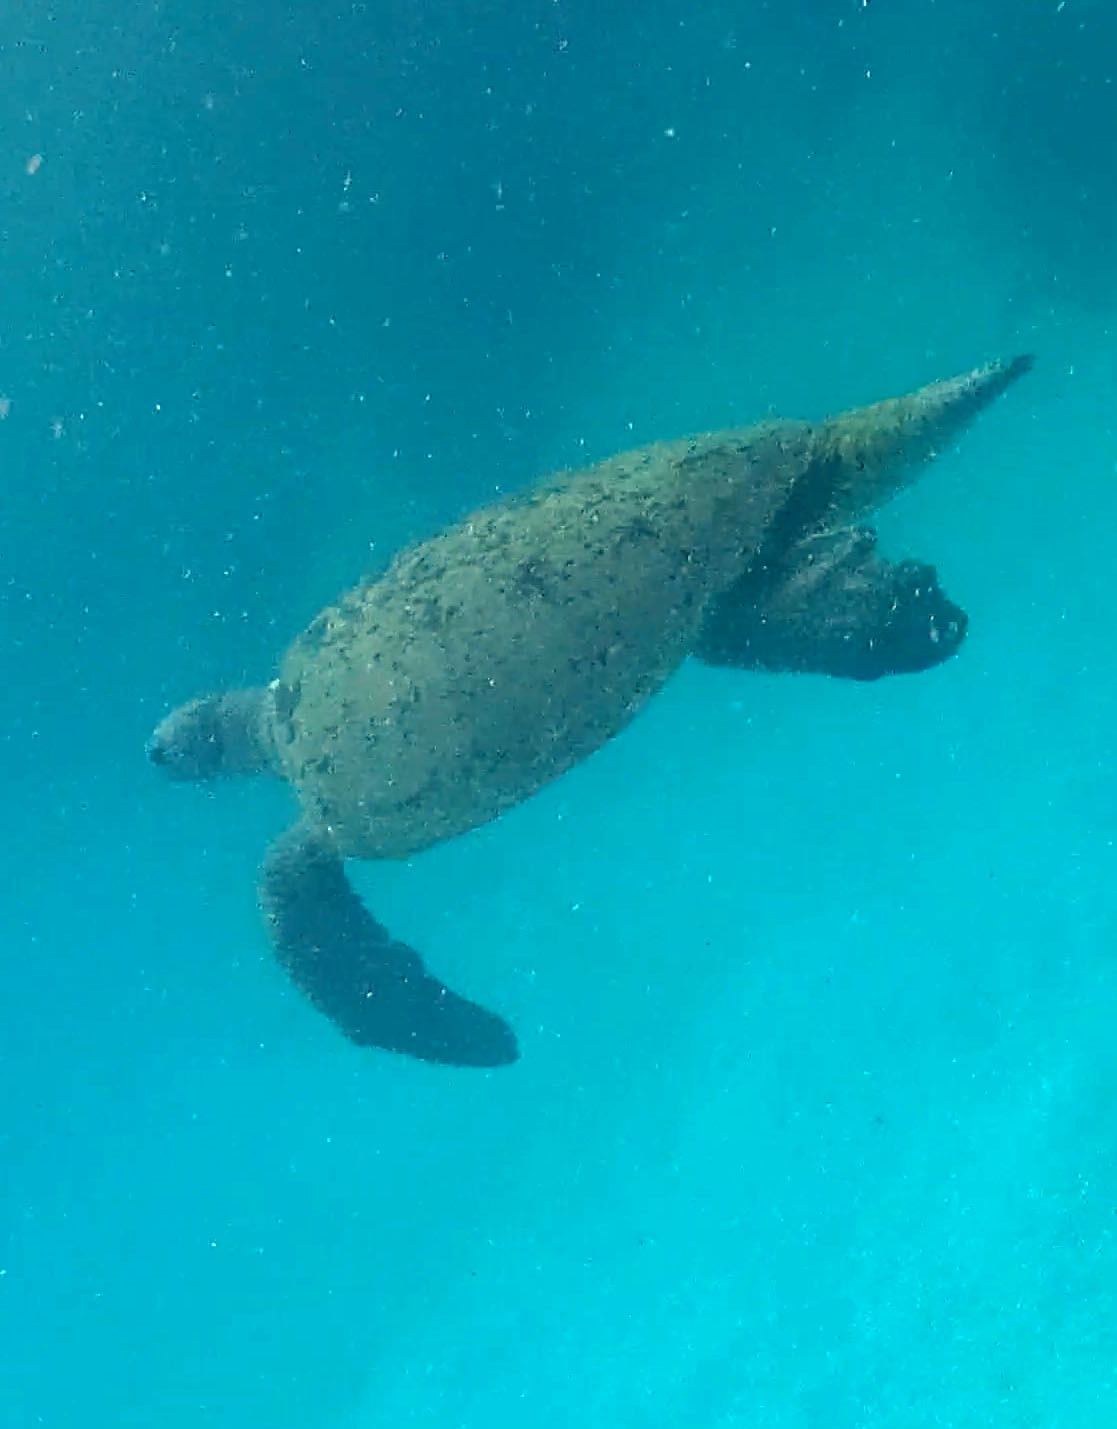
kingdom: Animalia
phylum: Chordata
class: Testudines
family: Cheloniidae
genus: Chelonia
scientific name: Chelonia mydas
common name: Green turtle
